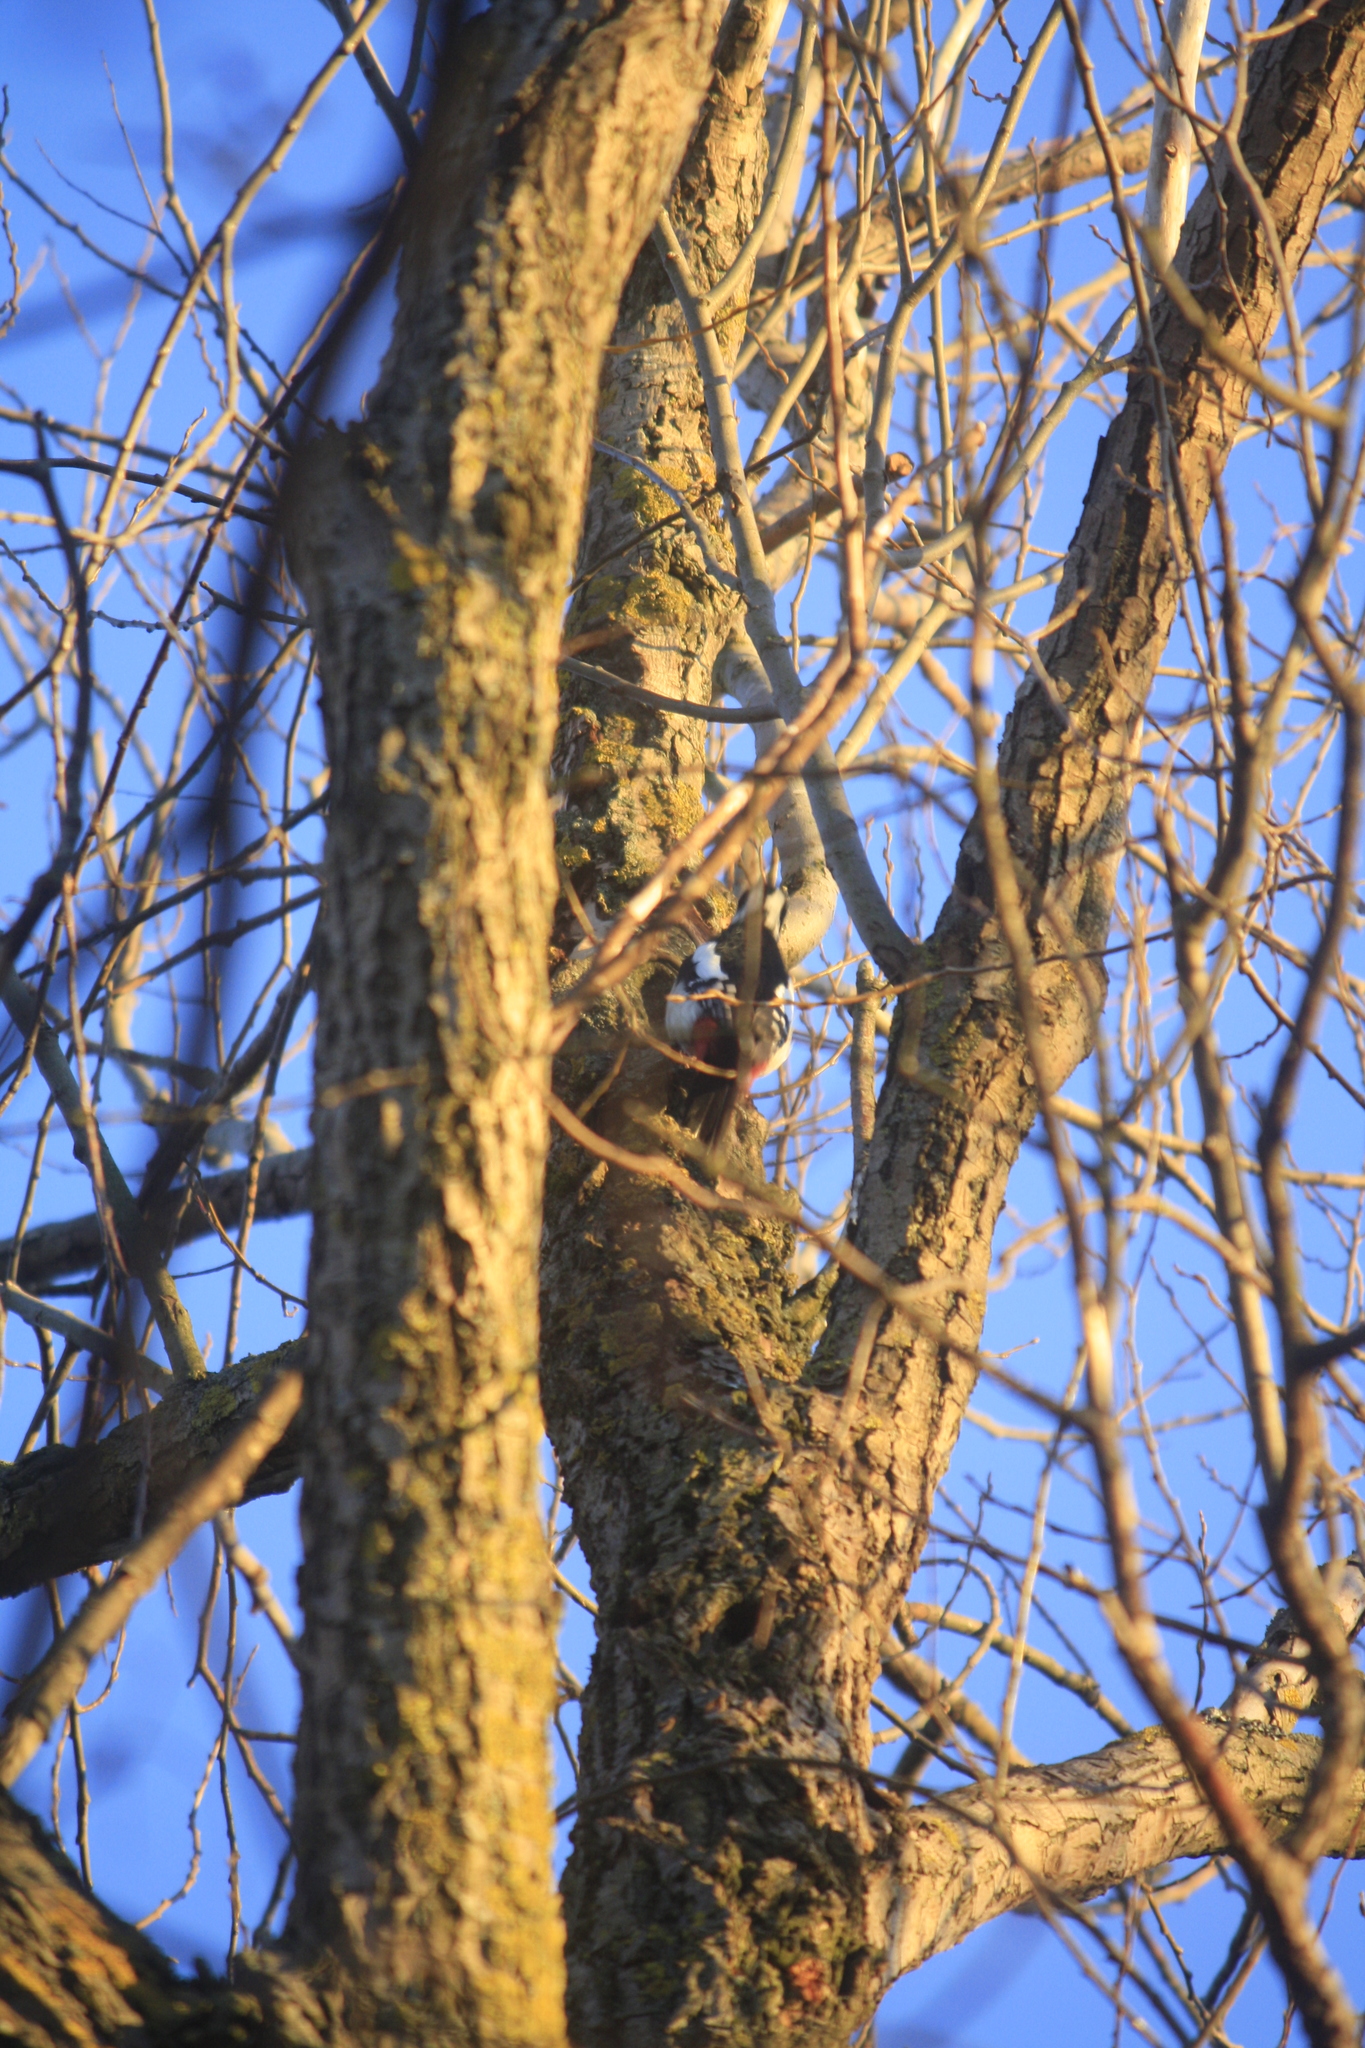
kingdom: Animalia
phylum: Chordata
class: Aves
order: Piciformes
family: Picidae
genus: Dendrocopos
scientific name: Dendrocopos major
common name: Great spotted woodpecker
